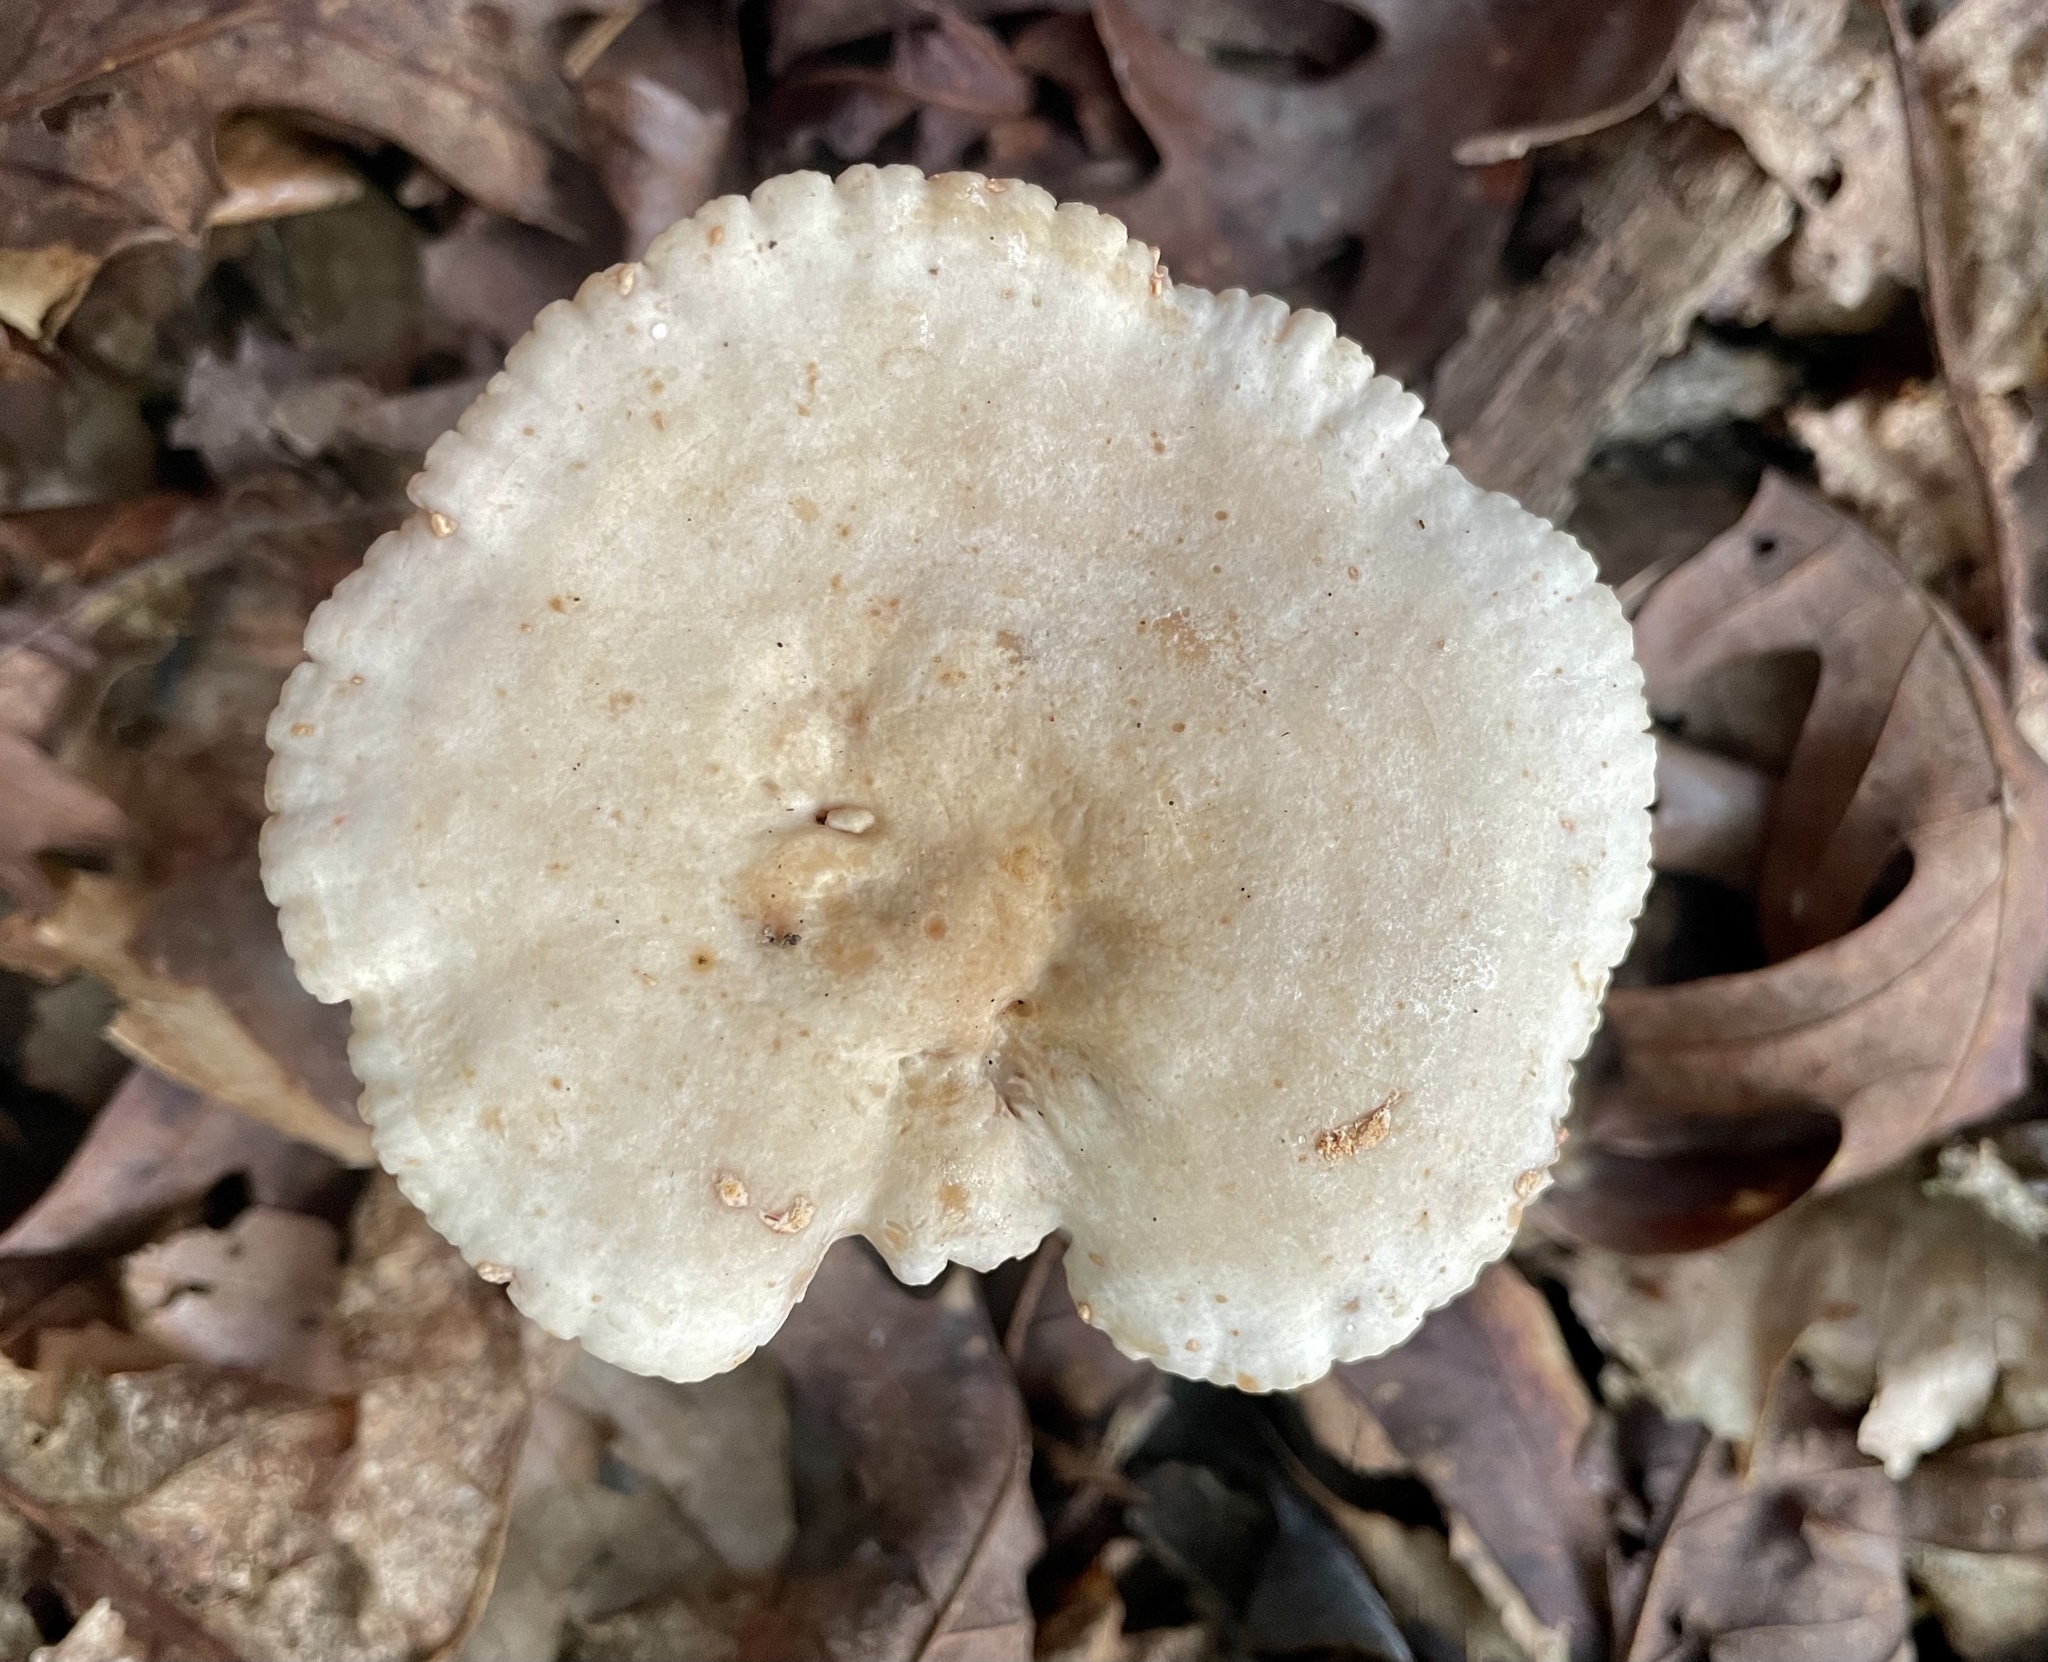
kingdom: Fungi
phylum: Basidiomycota
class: Agaricomycetes
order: Russulales
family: Russulaceae
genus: Lactarius
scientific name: Lactarius subplinthogalus
